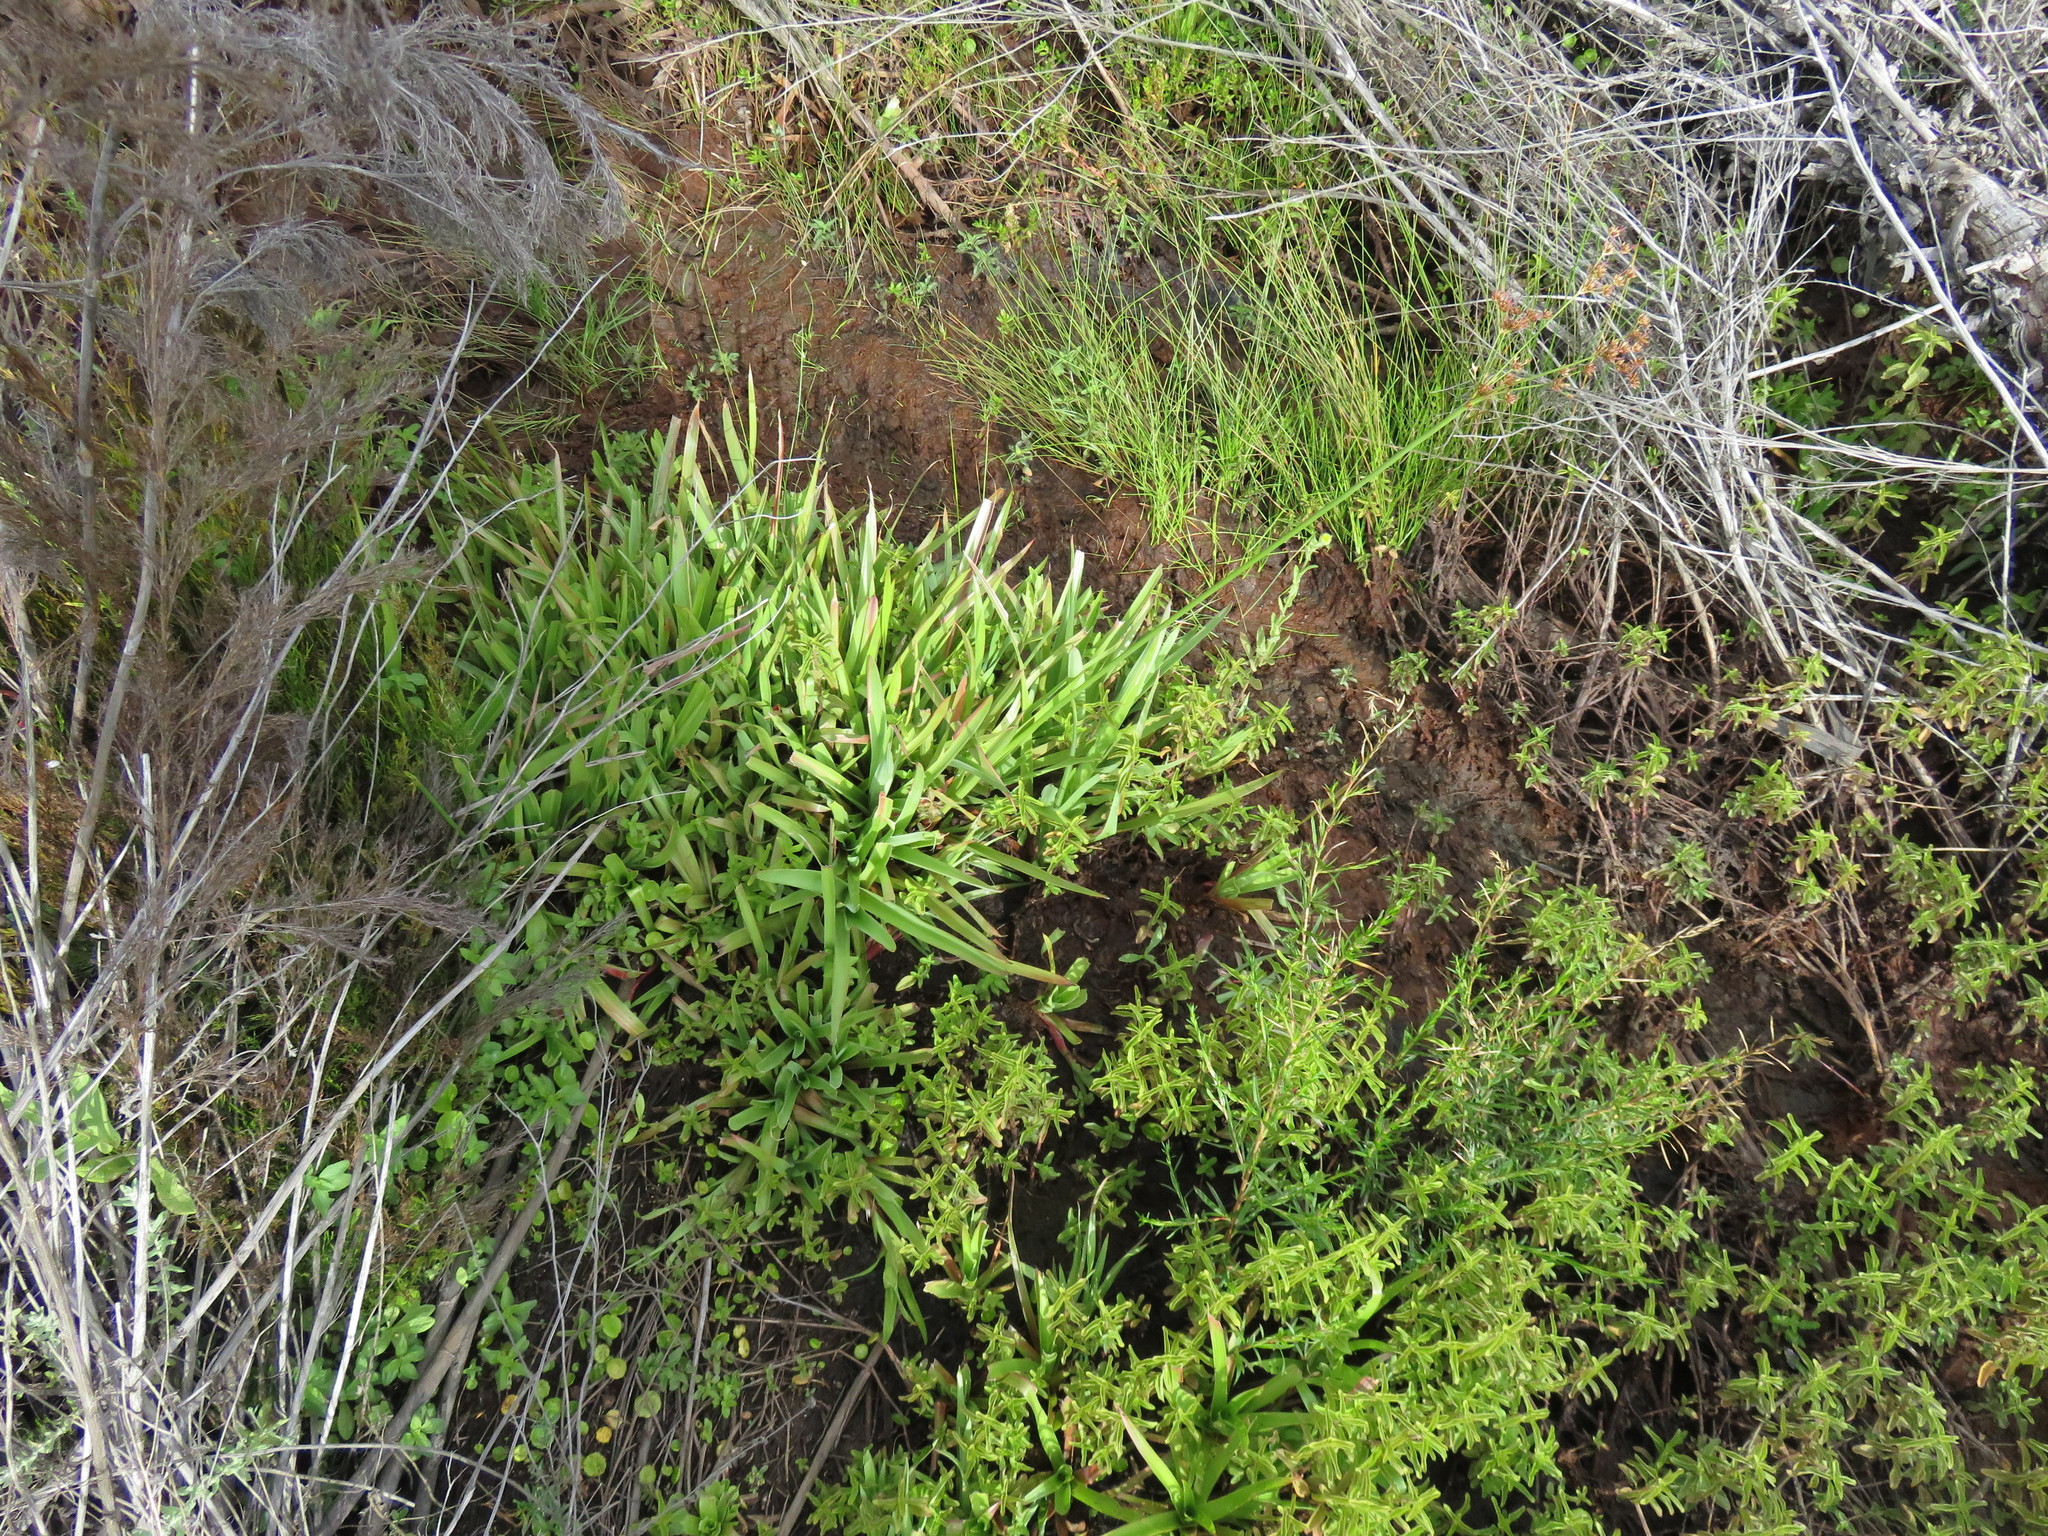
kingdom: Plantae
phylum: Tracheophyta
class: Liliopsida
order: Poales
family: Juncaceae
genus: Juncus
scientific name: Juncus lomatophyllus
